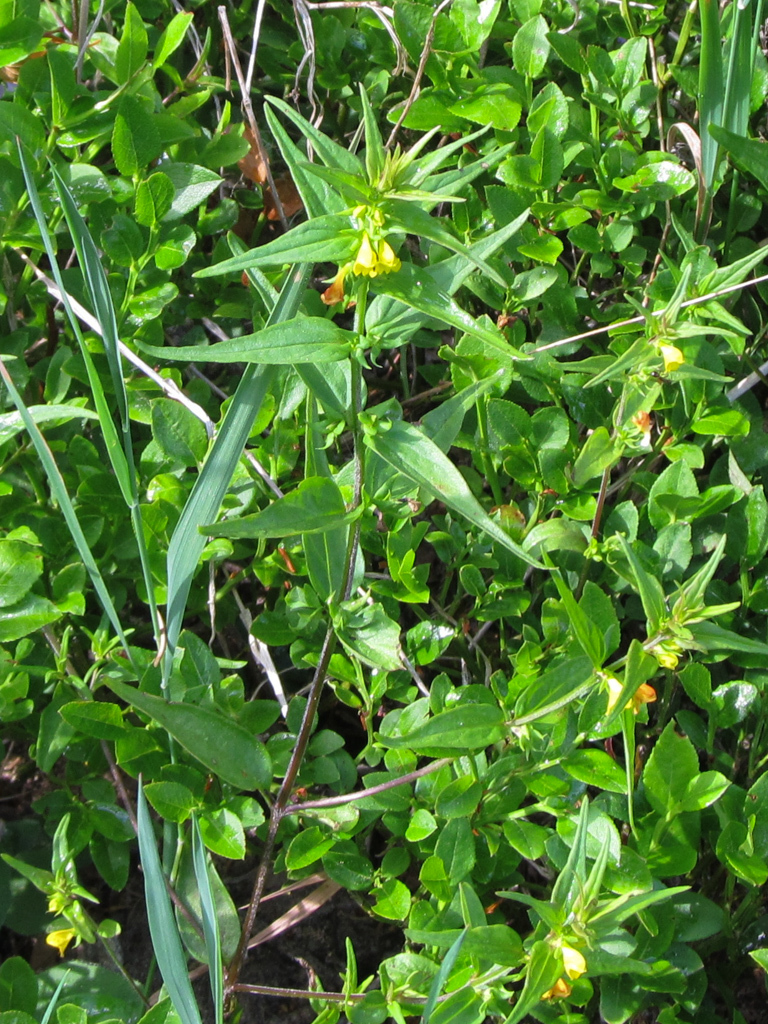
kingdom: Plantae
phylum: Tracheophyta
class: Magnoliopsida
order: Lamiales
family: Orobanchaceae
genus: Melampyrum
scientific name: Melampyrum sylvaticum
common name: Small cow-wheat
